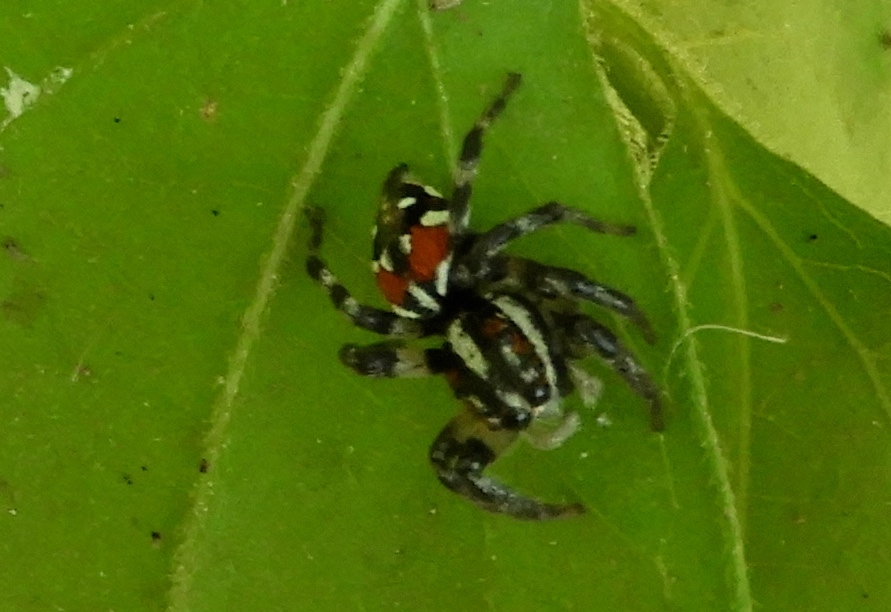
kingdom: Animalia
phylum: Arthropoda
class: Arachnida
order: Araneae
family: Salticidae
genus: Nycerella
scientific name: Nycerella delecta
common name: Jumping spiders
